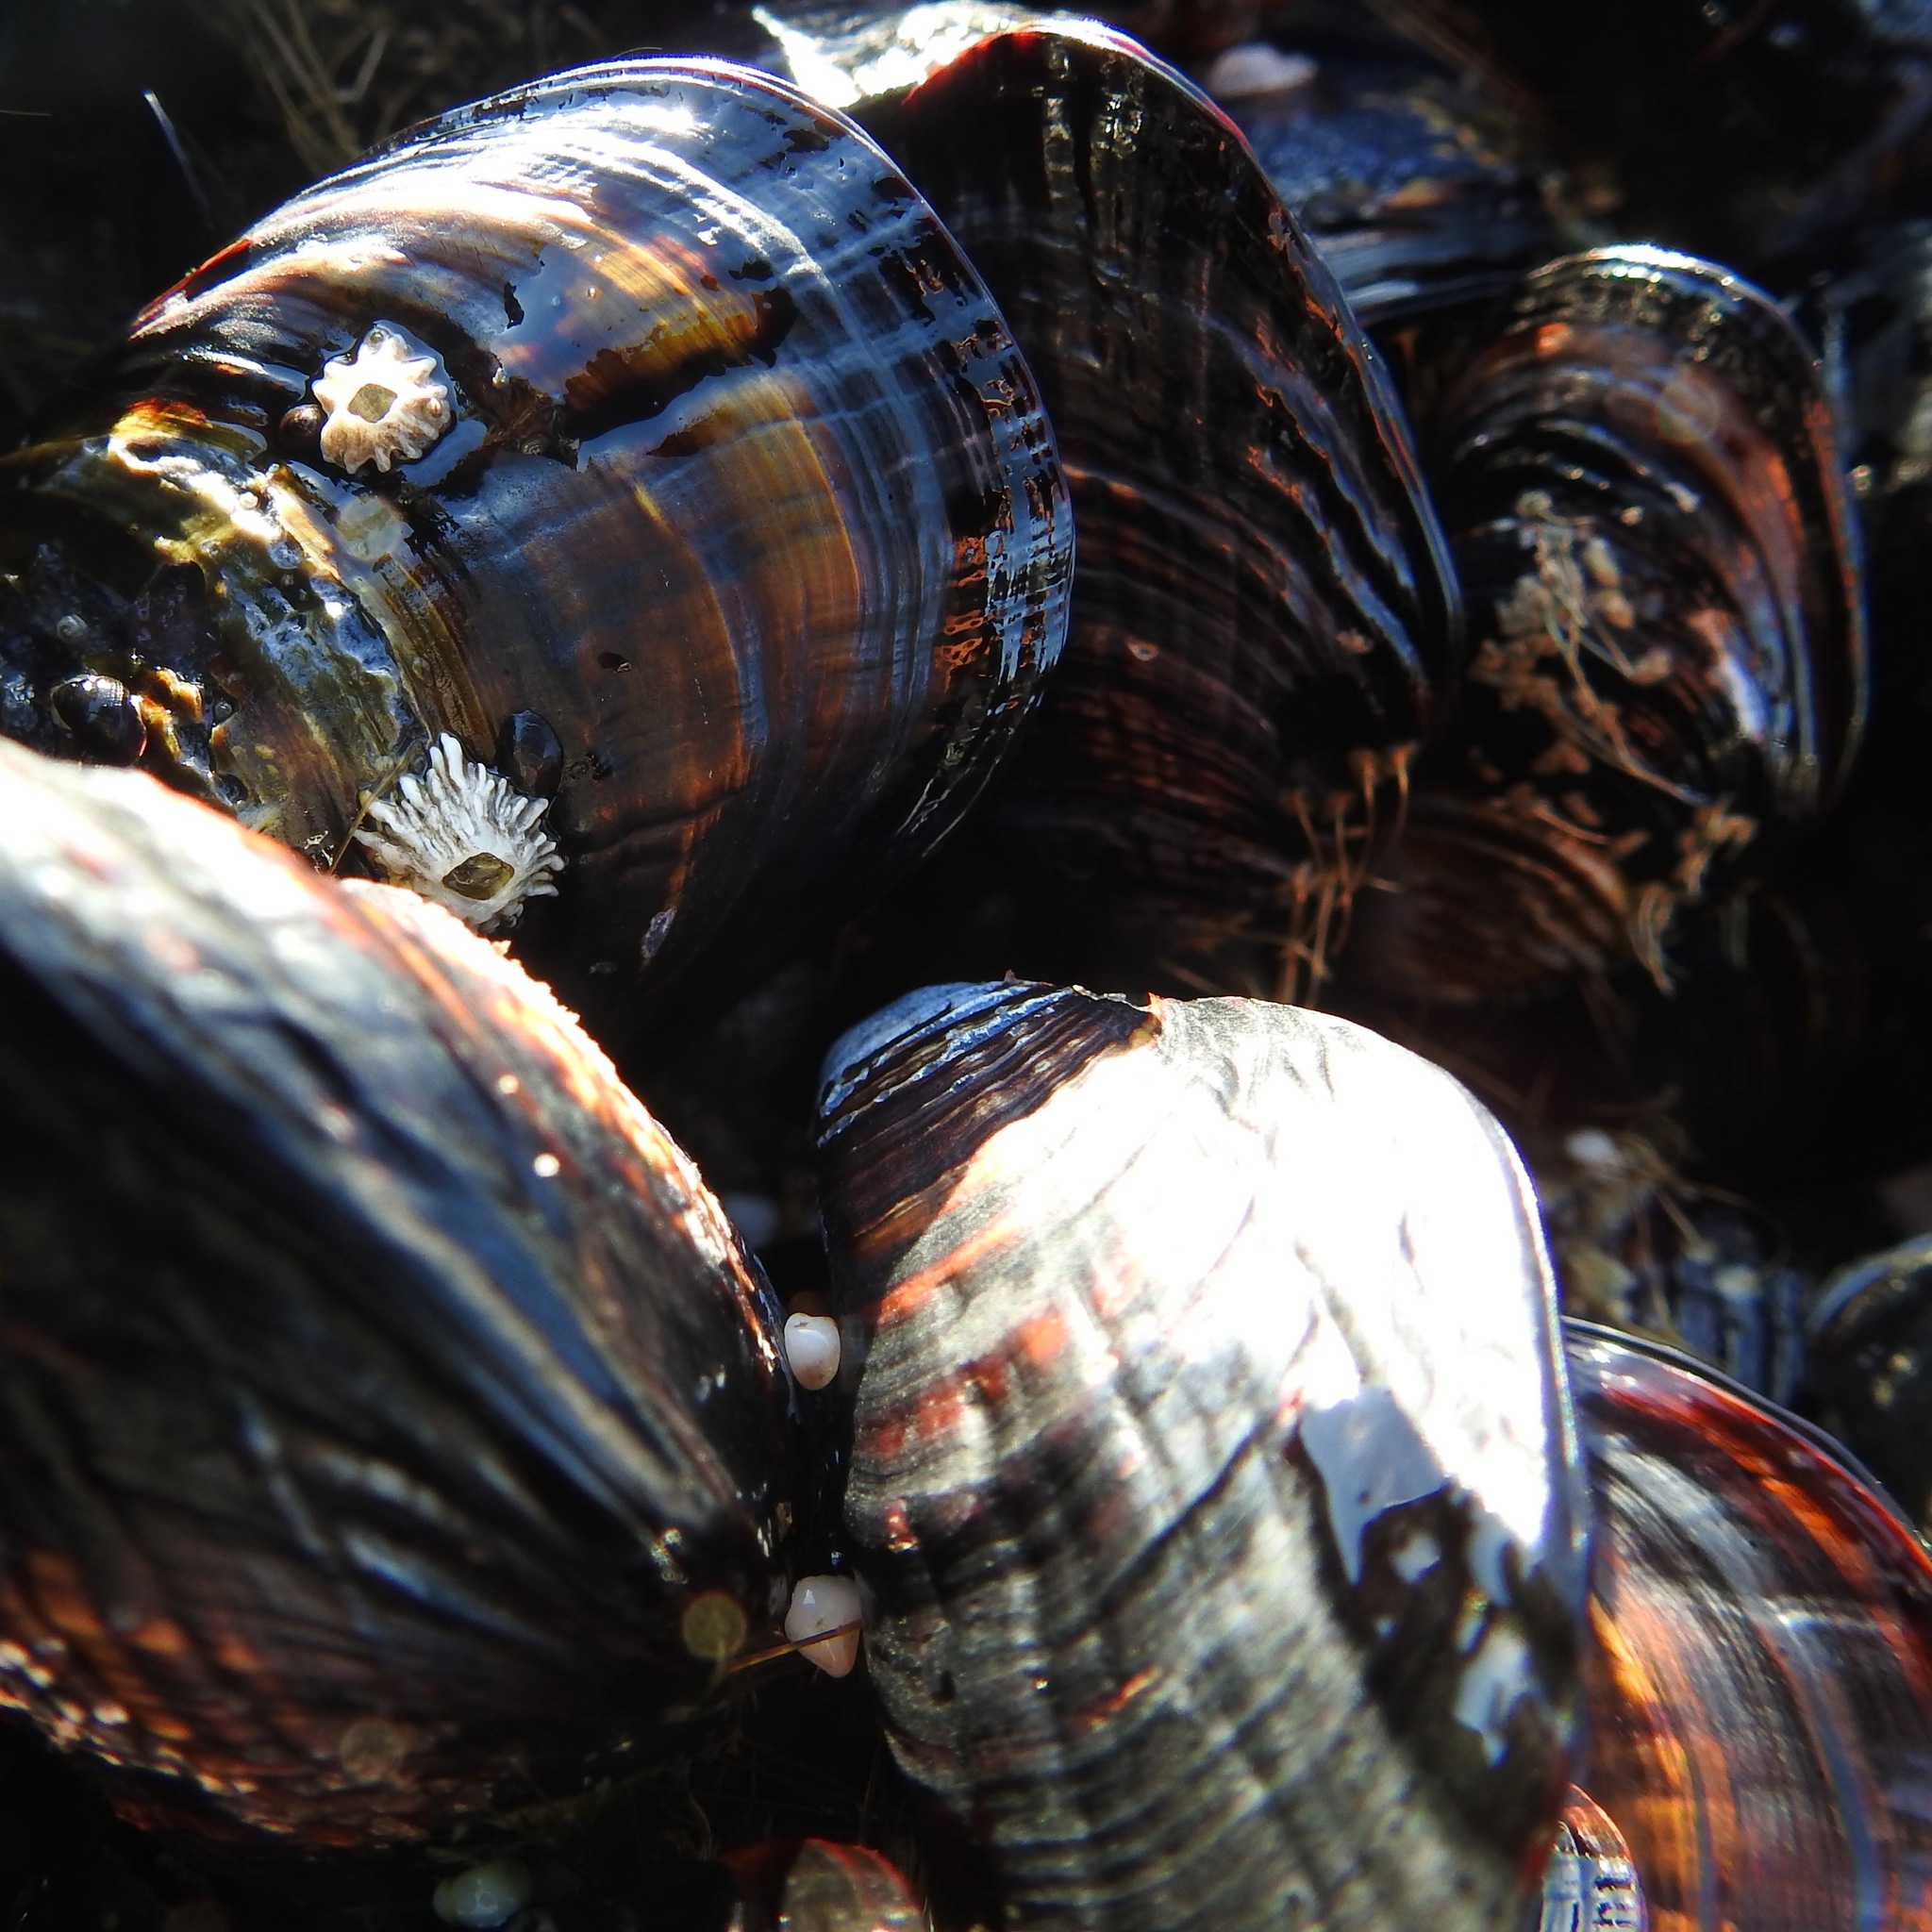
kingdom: Animalia
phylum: Mollusca
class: Bivalvia
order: Mytilida
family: Mytilidae
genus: Mytilus
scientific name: Mytilus californianus
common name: California mussel
